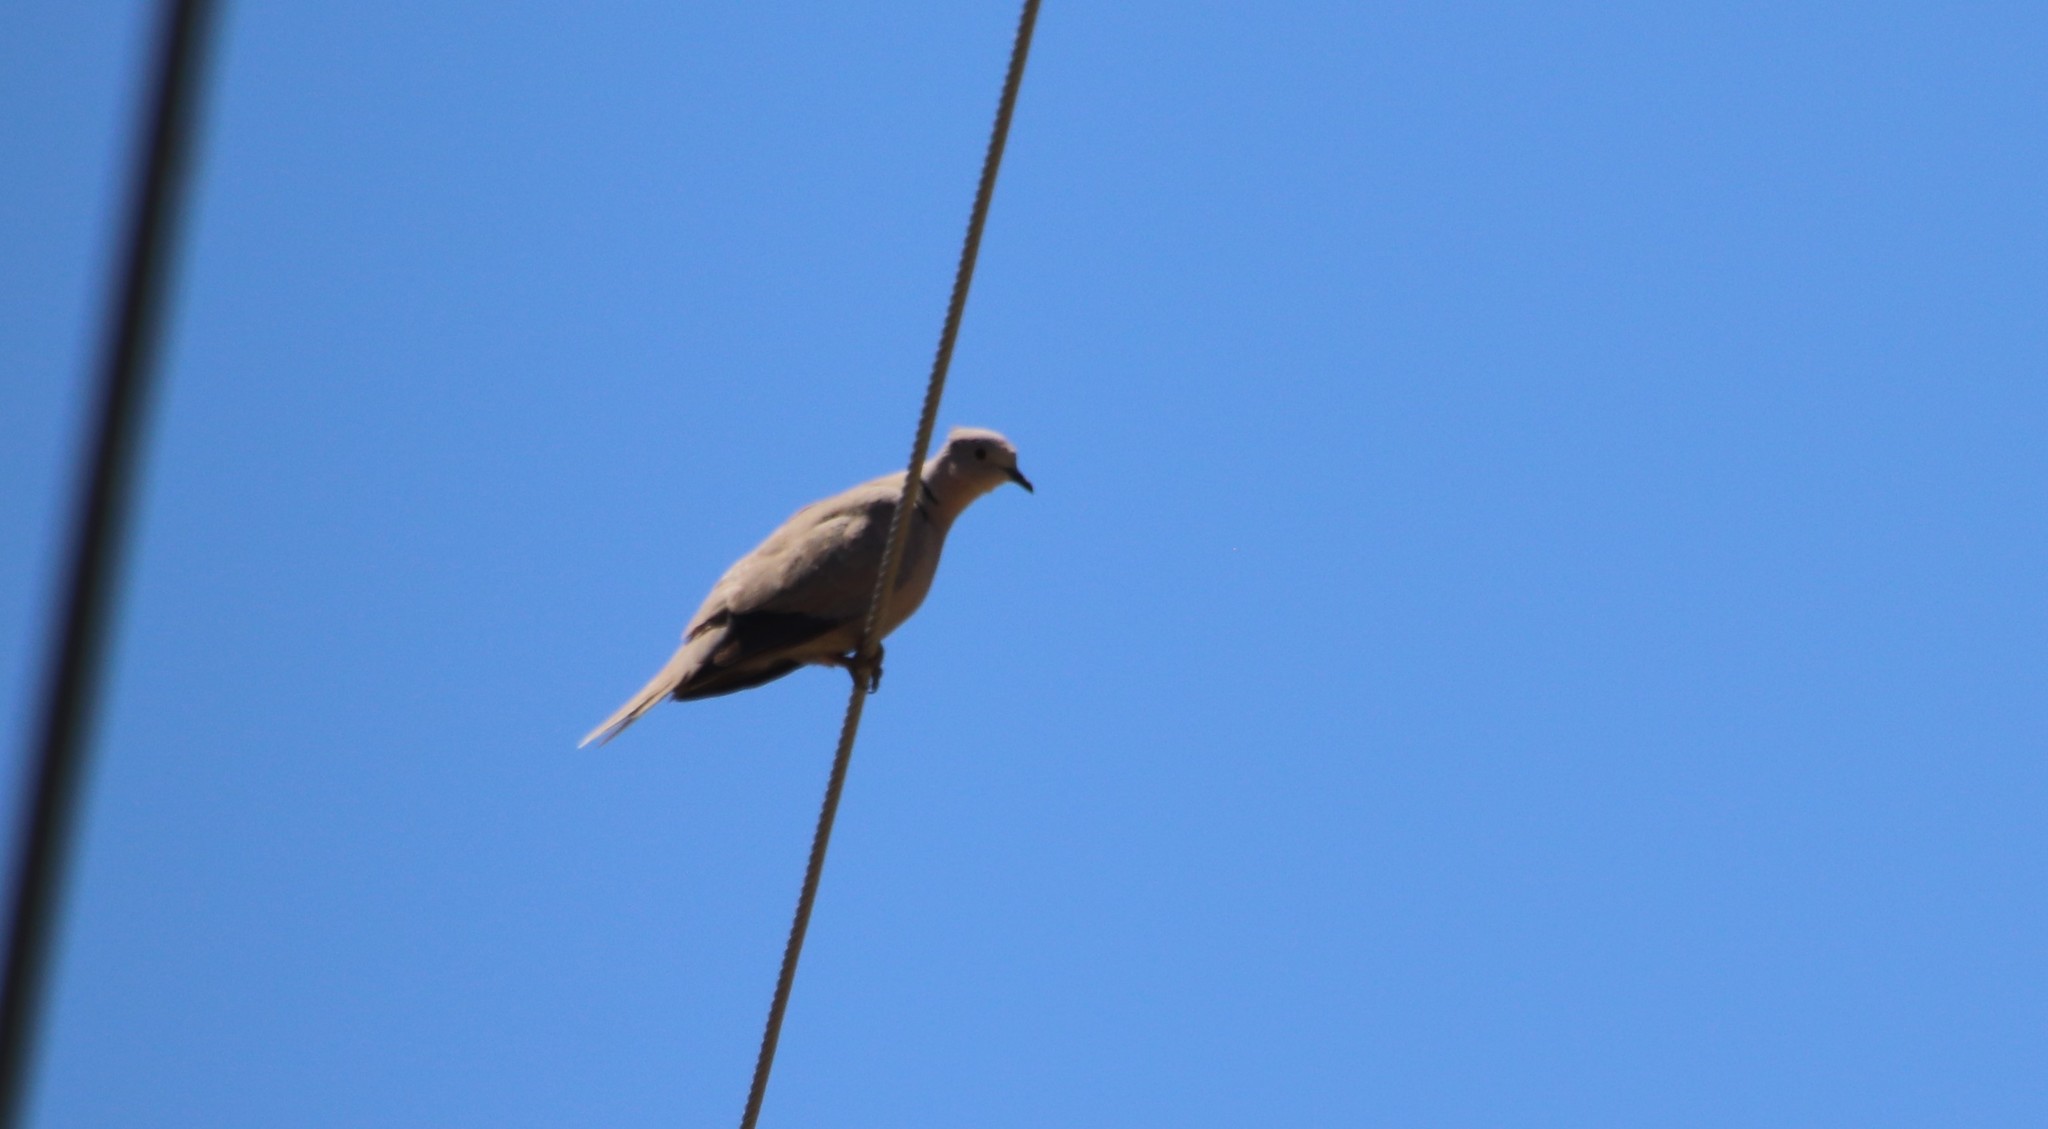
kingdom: Animalia
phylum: Chordata
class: Aves
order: Columbiformes
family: Columbidae
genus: Streptopelia
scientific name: Streptopelia decaocto
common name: Eurasian collared dove
